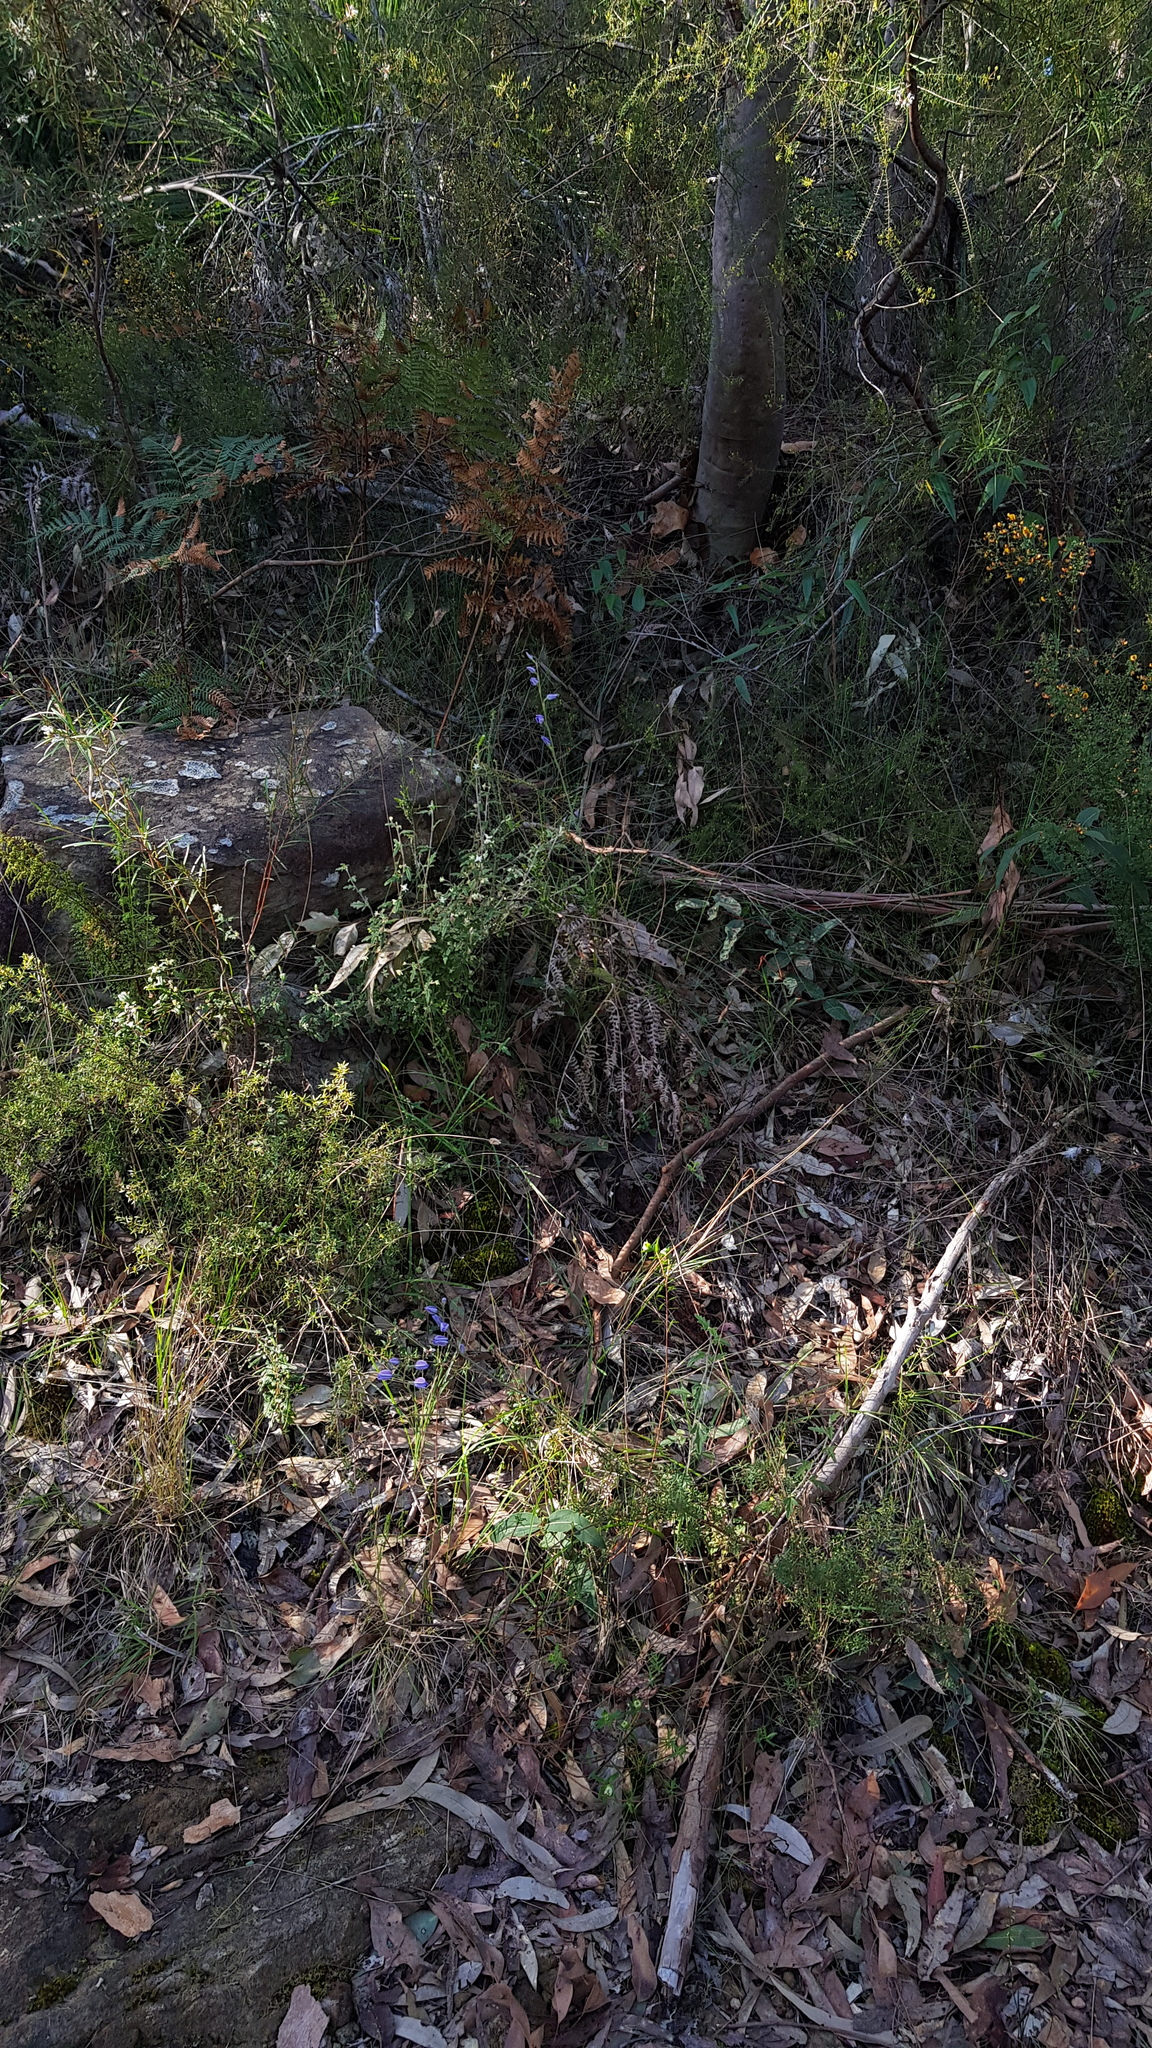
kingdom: Plantae
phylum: Tracheophyta
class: Liliopsida
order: Asparagales
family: Orchidaceae
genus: Thelymitra
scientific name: Thelymitra ixioides
